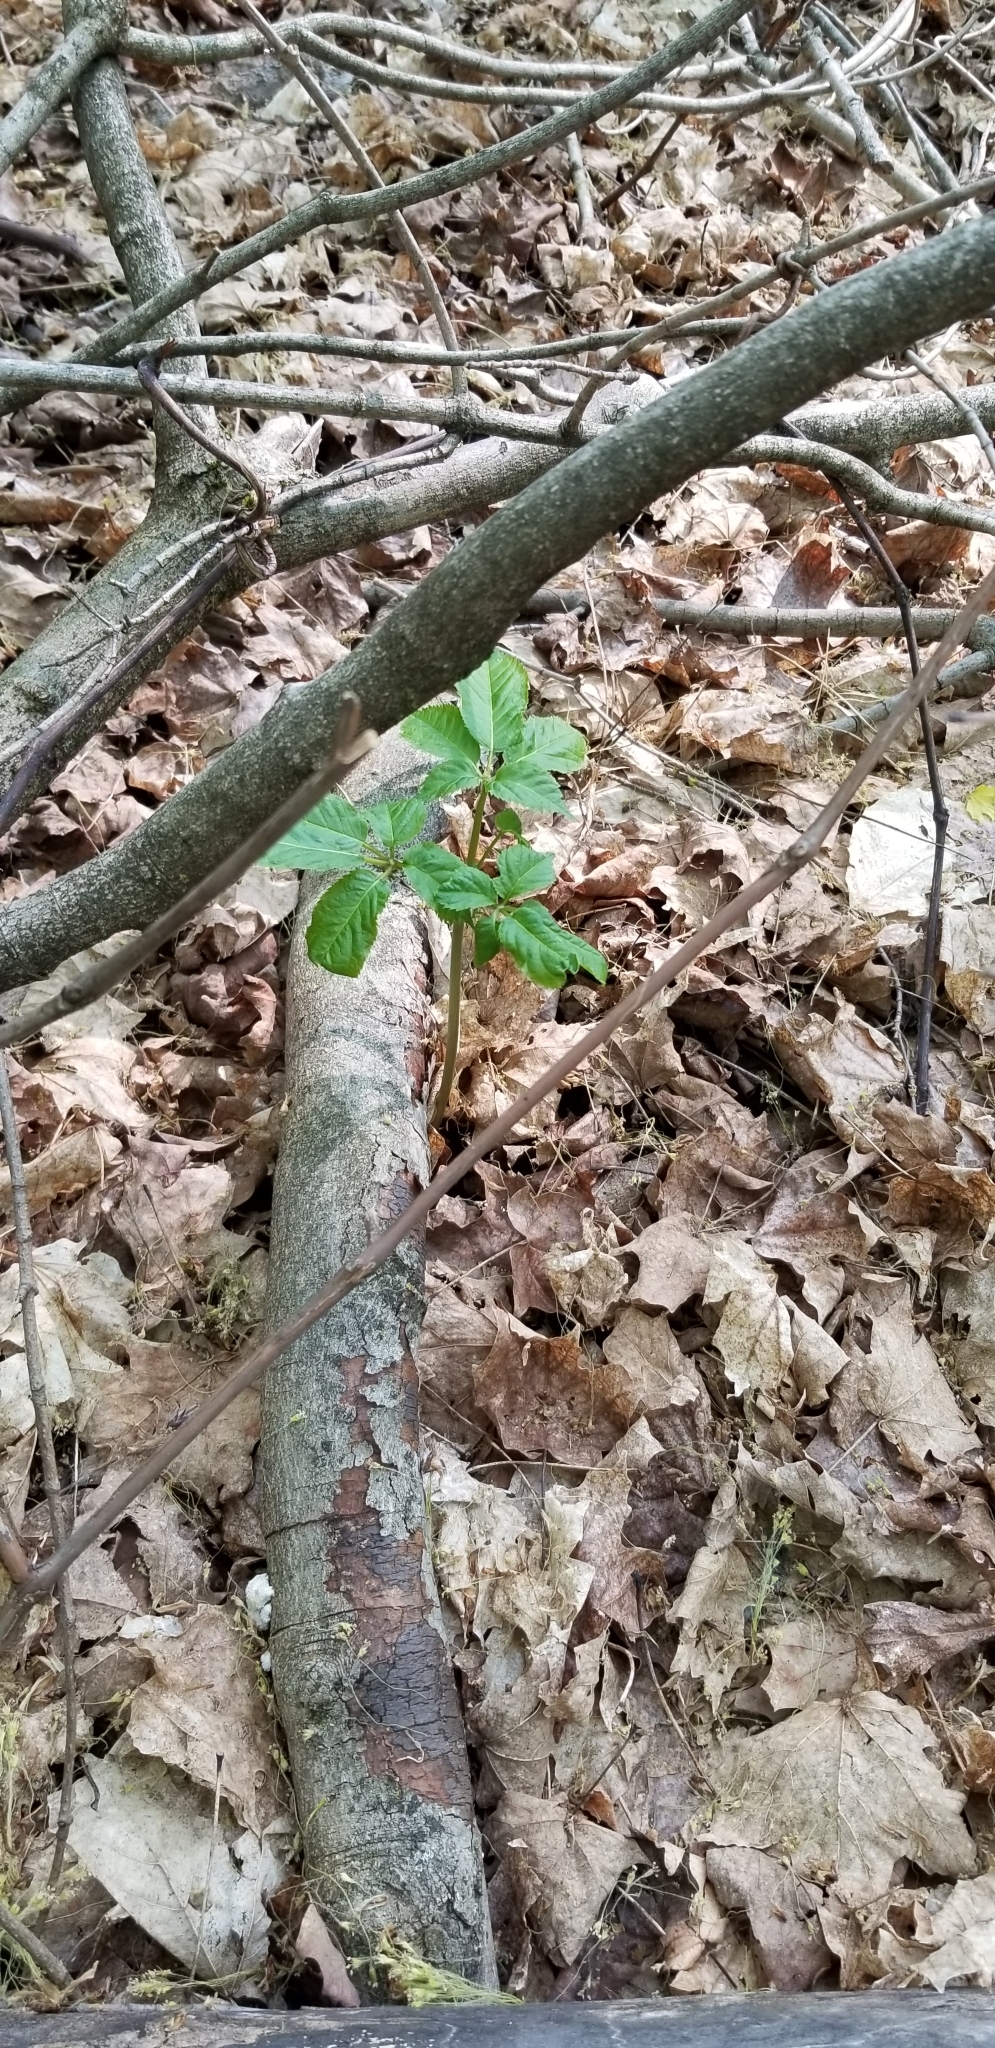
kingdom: Plantae
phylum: Tracheophyta
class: Magnoliopsida
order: Apiales
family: Araliaceae
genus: Panax
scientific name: Panax quinquefolius
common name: American ginseng
